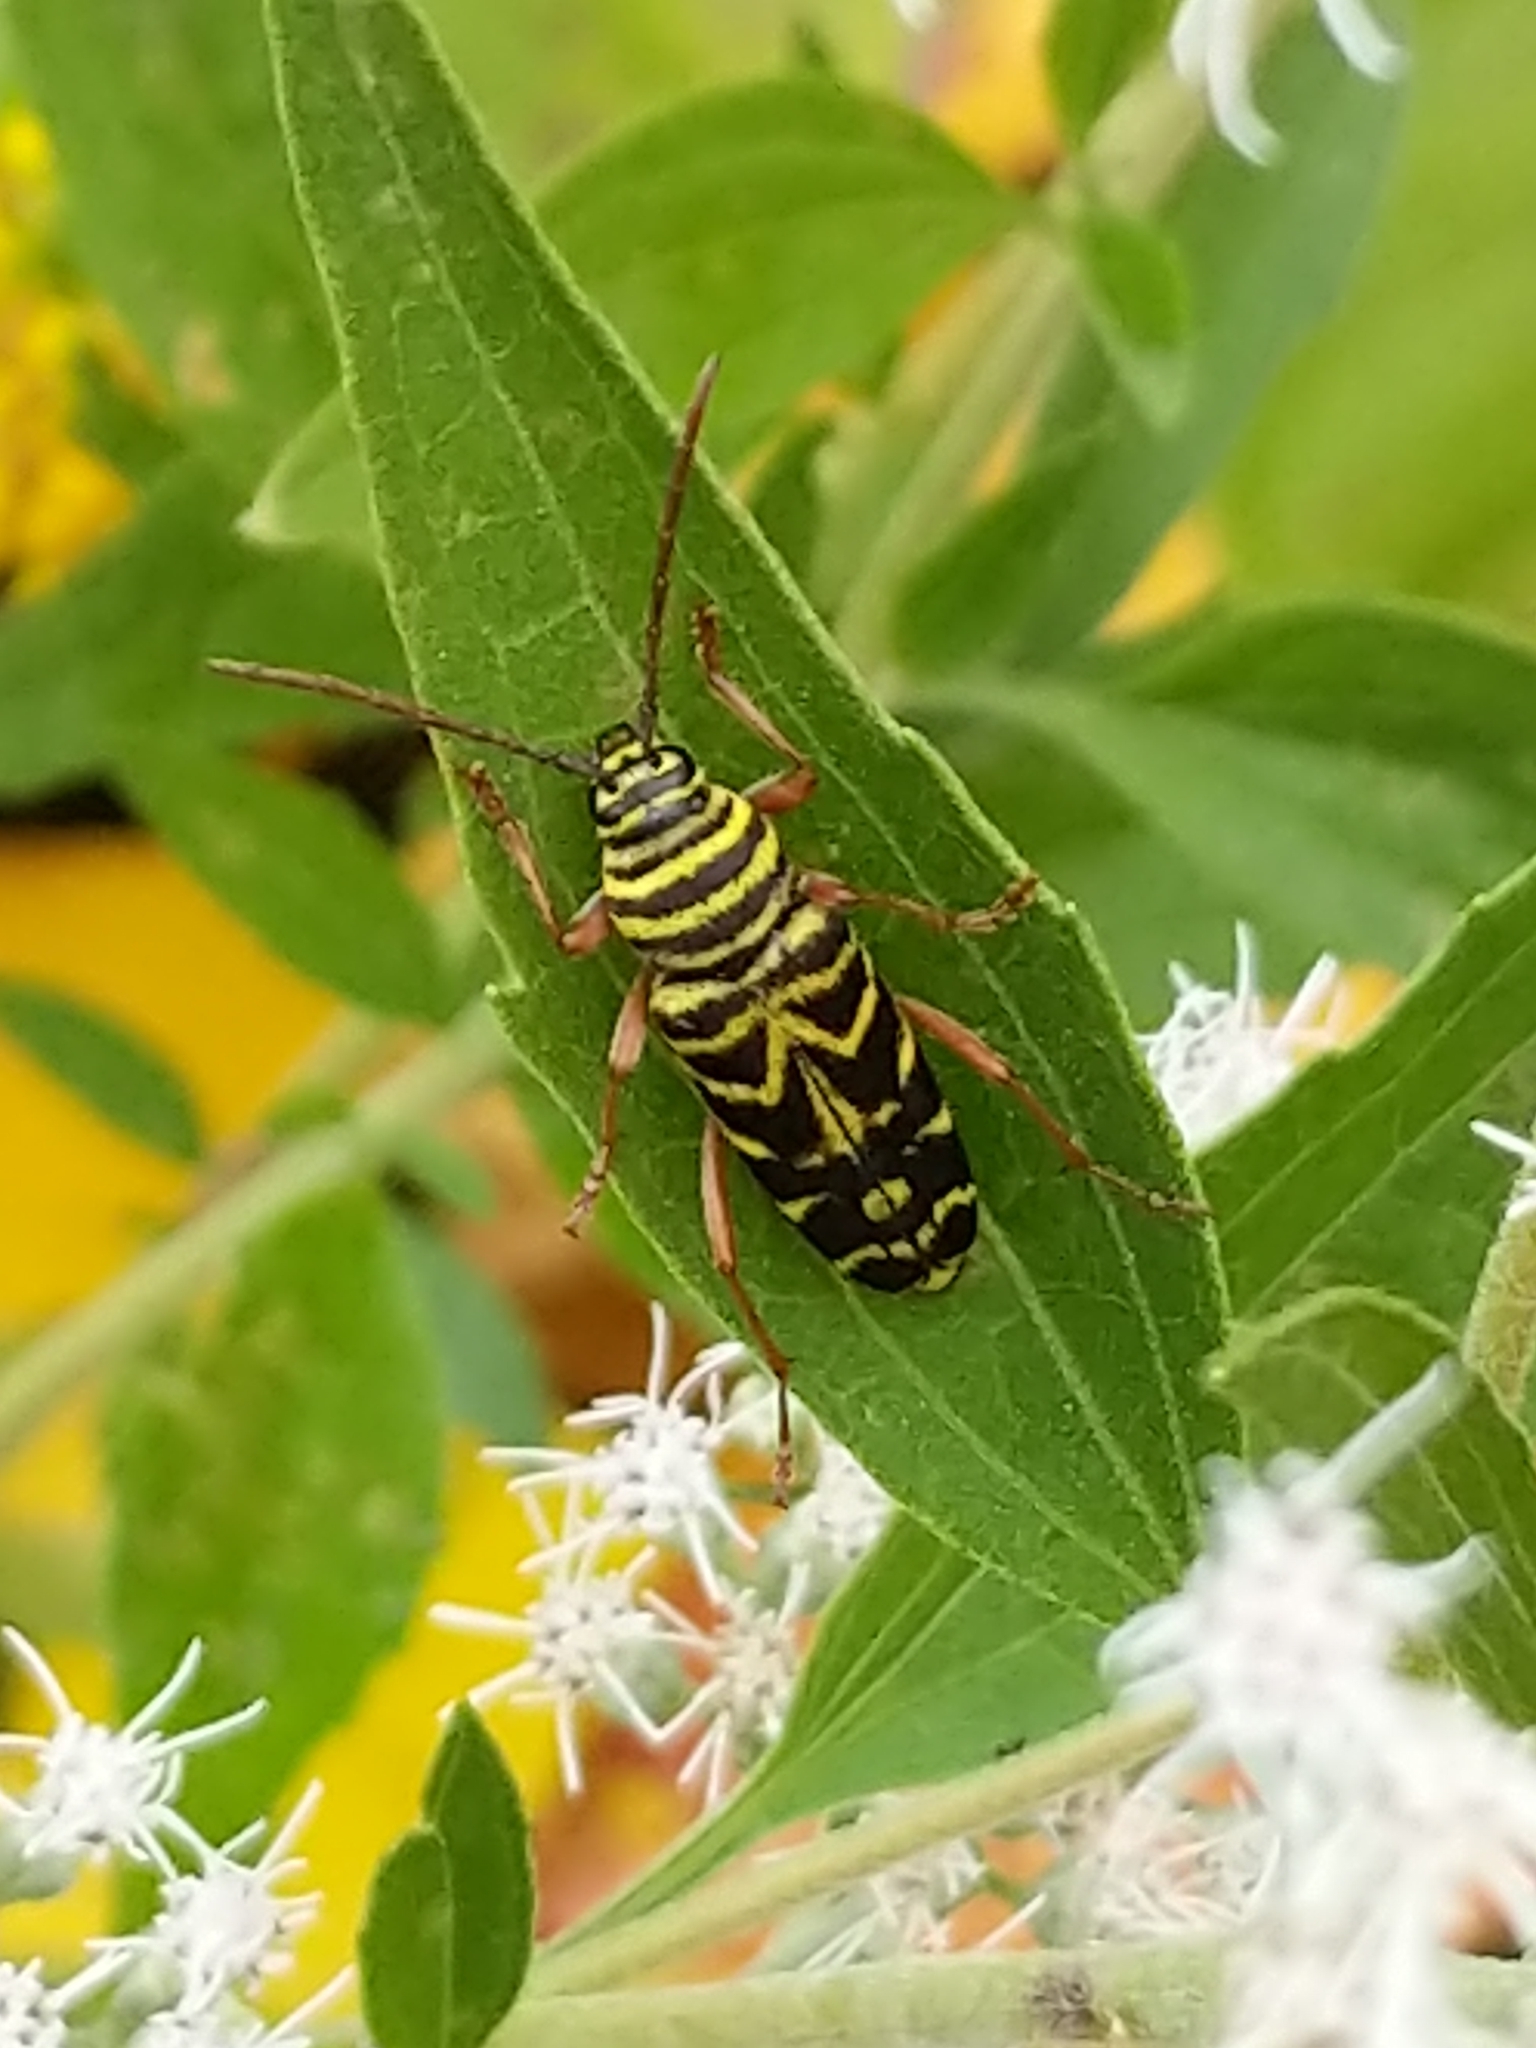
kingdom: Animalia
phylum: Arthropoda
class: Insecta
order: Coleoptera
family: Cerambycidae
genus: Megacyllene
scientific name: Megacyllene robiniae
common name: Locust borer
